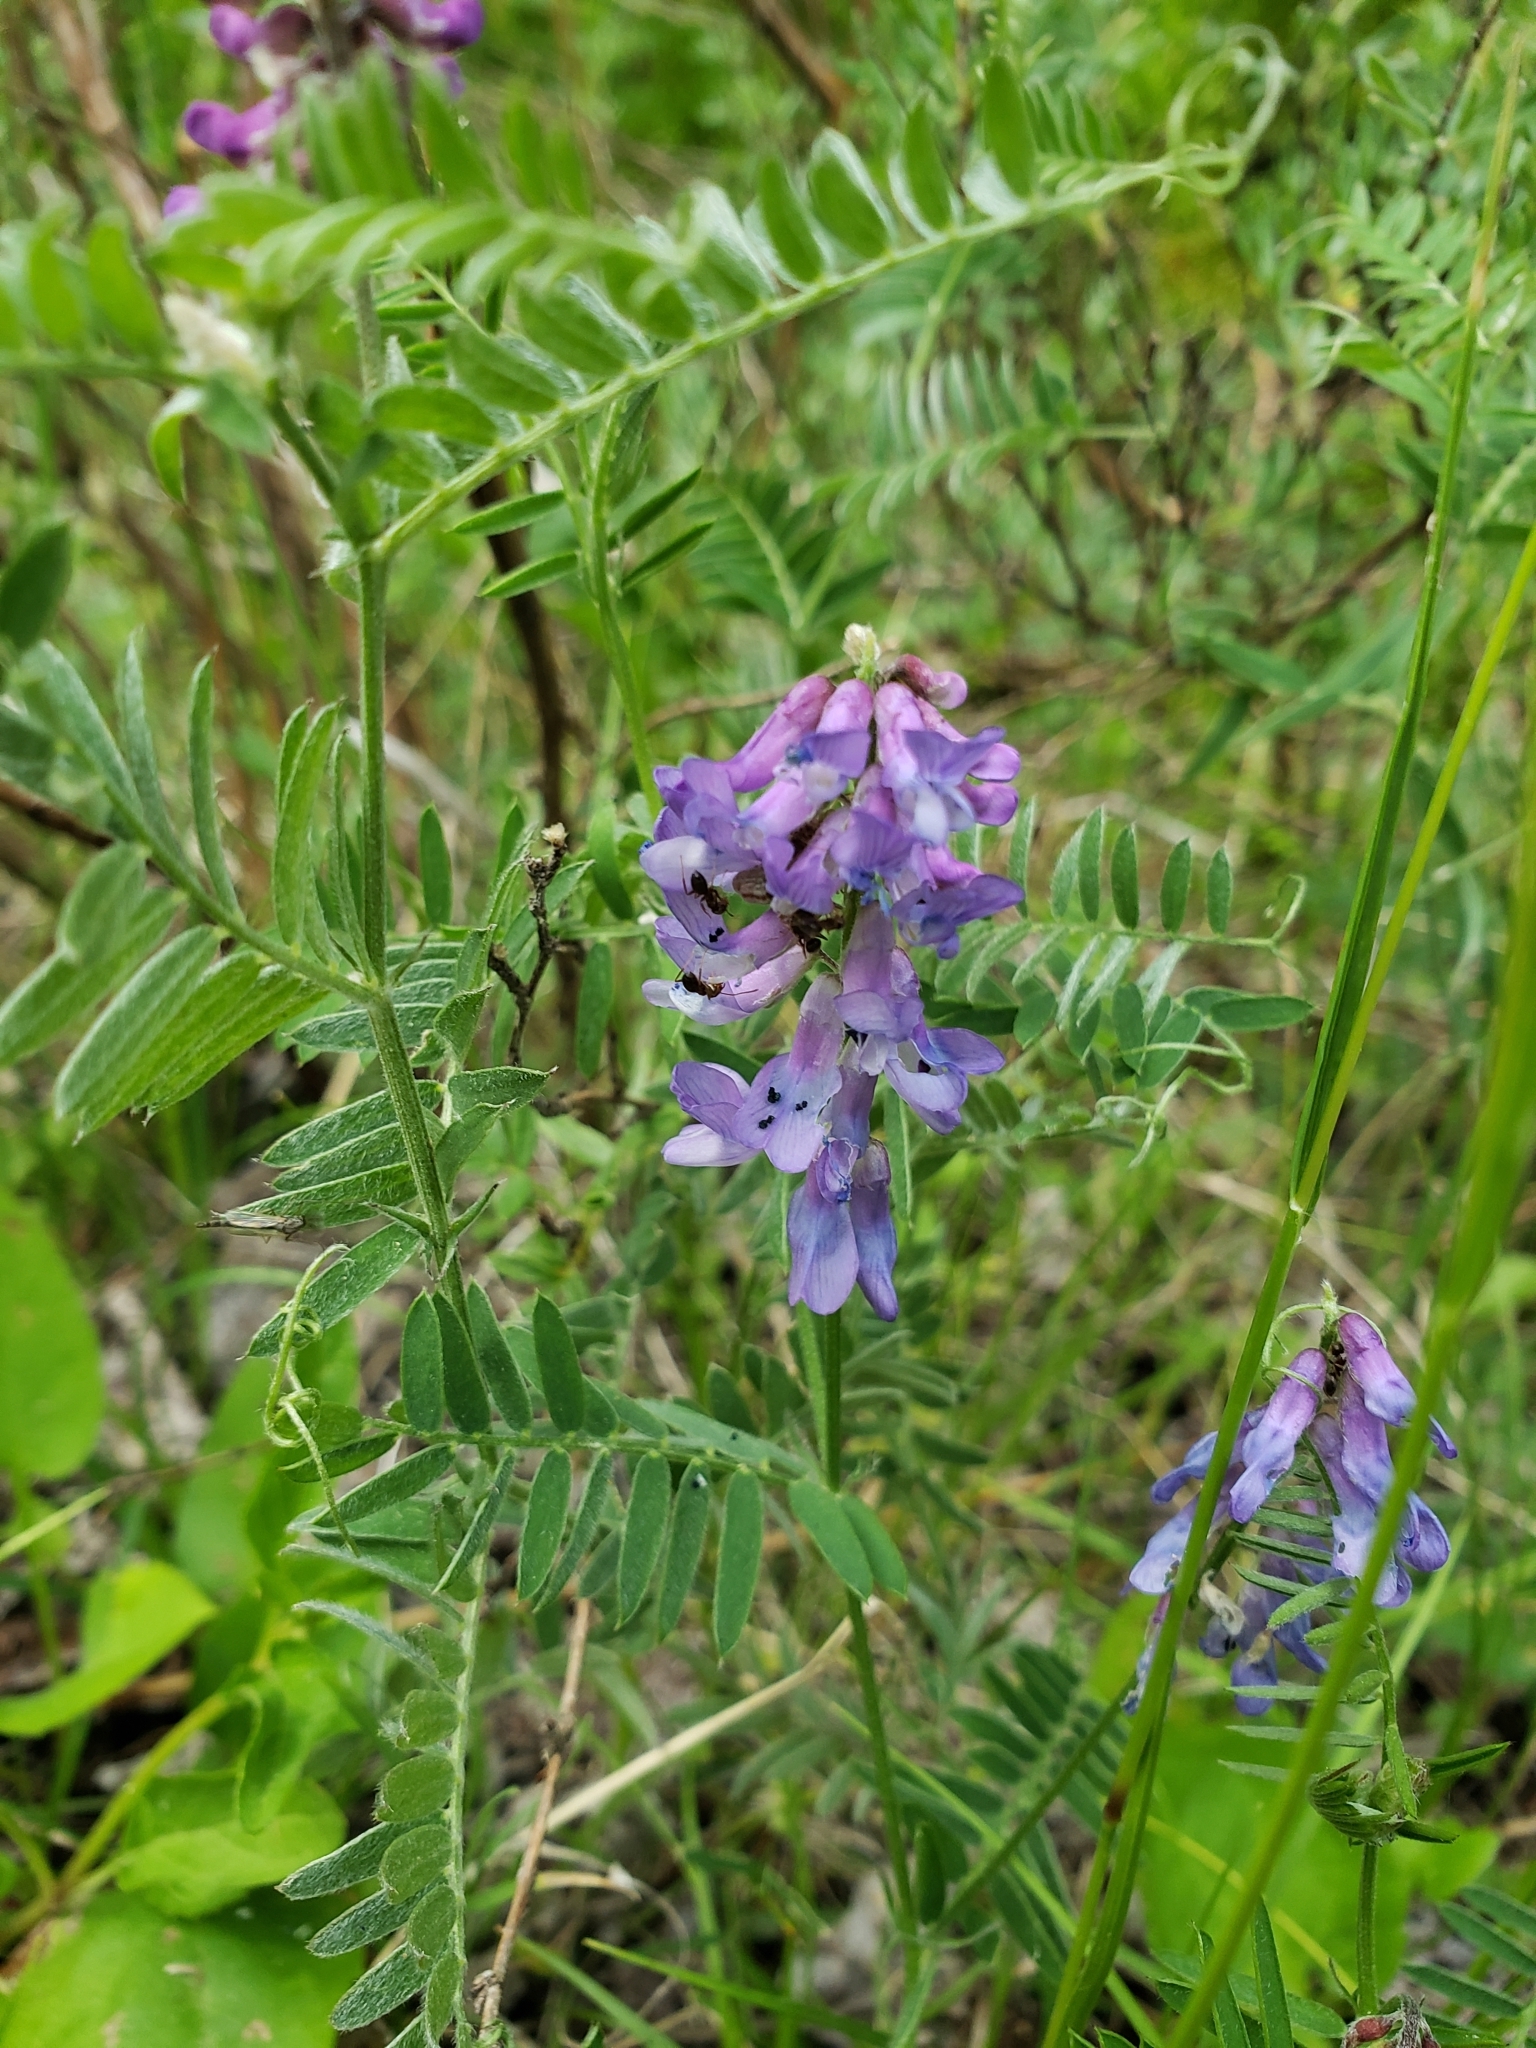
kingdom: Plantae
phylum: Tracheophyta
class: Magnoliopsida
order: Fabales
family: Fabaceae
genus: Vicia
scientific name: Vicia cracca
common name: Bird vetch
